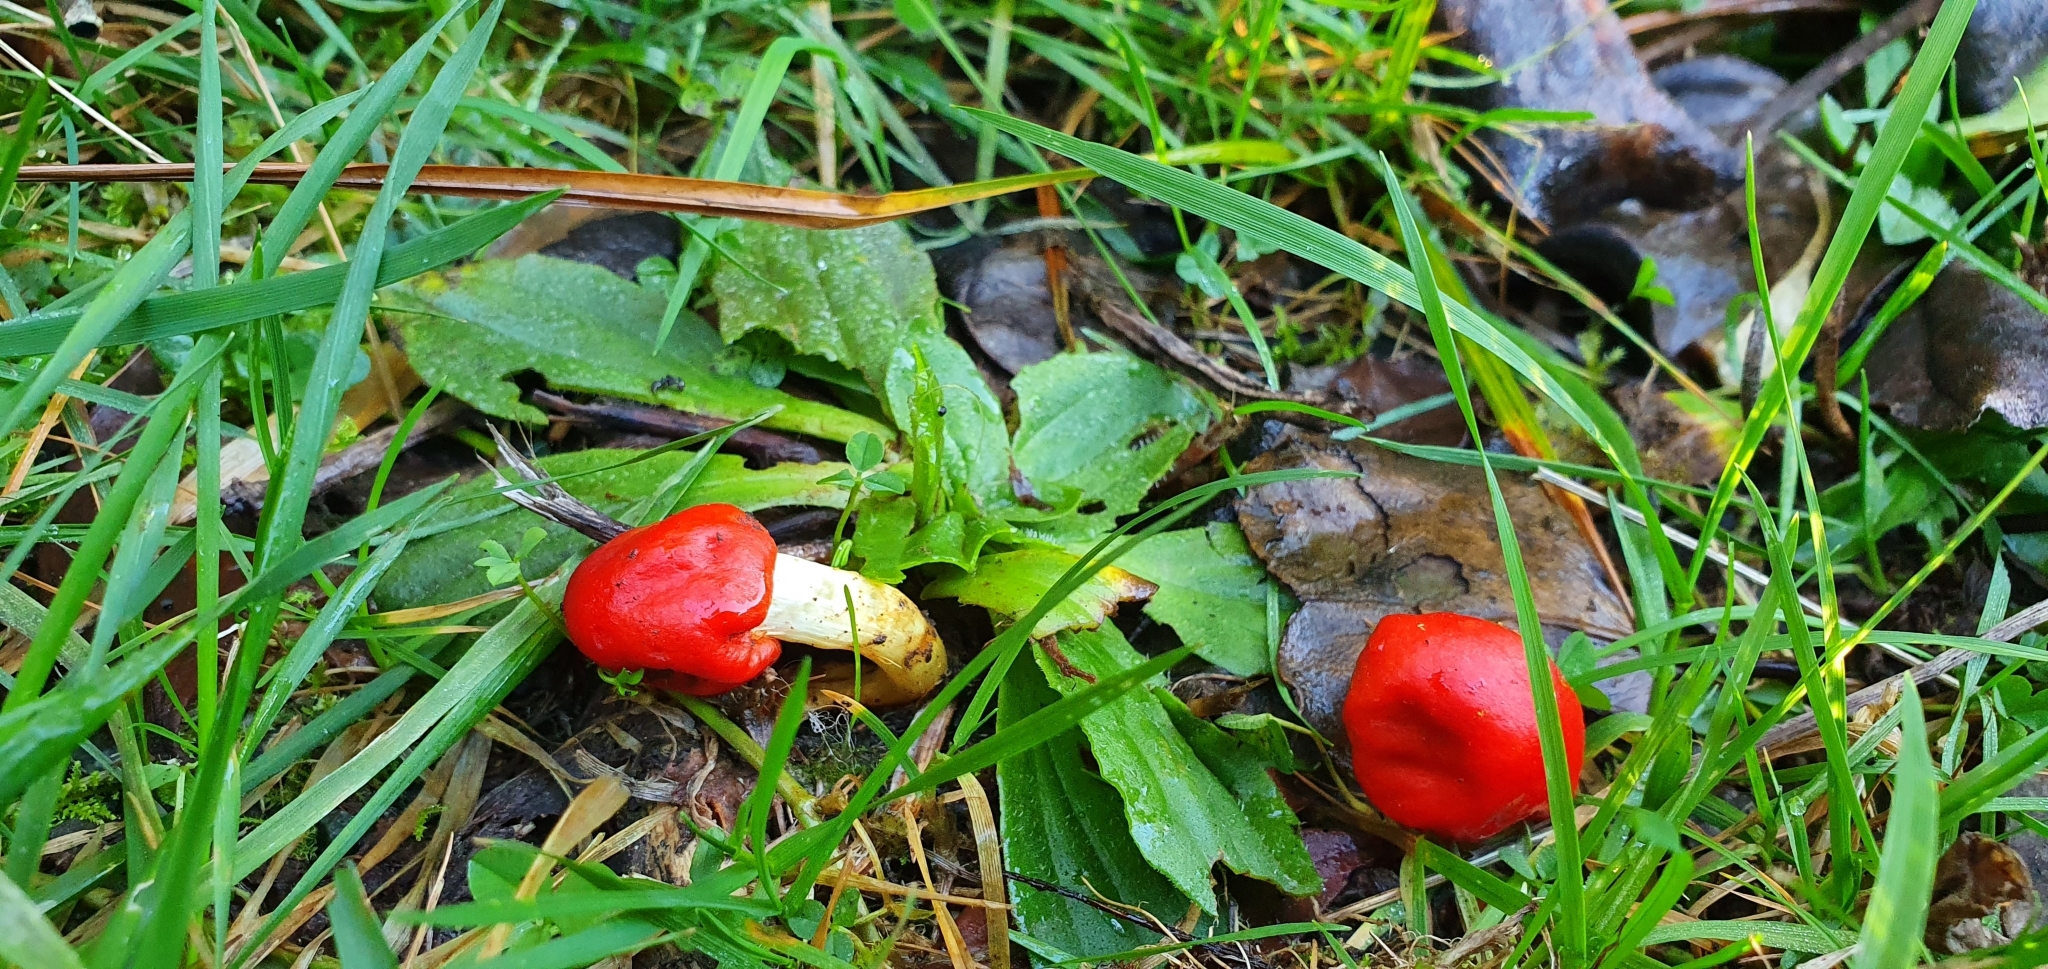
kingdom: Fungi
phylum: Basidiomycota
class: Agaricomycetes
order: Agaricales
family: Strophariaceae
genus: Leratiomyces
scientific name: Leratiomyces erythrocephalus
